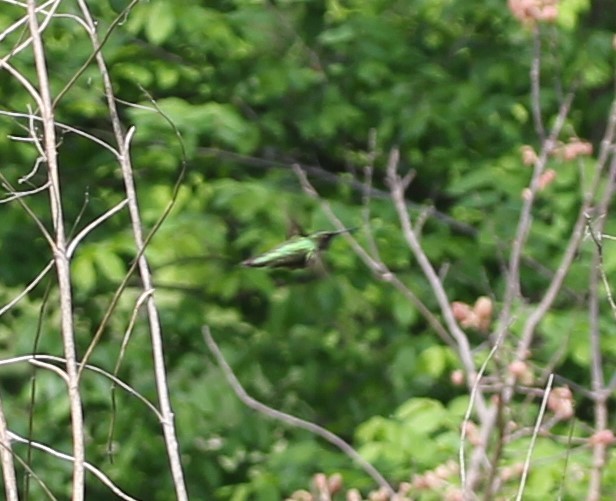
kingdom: Animalia
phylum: Chordata
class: Aves
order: Apodiformes
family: Trochilidae
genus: Archilochus
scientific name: Archilochus colubris
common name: Ruby-throated hummingbird
